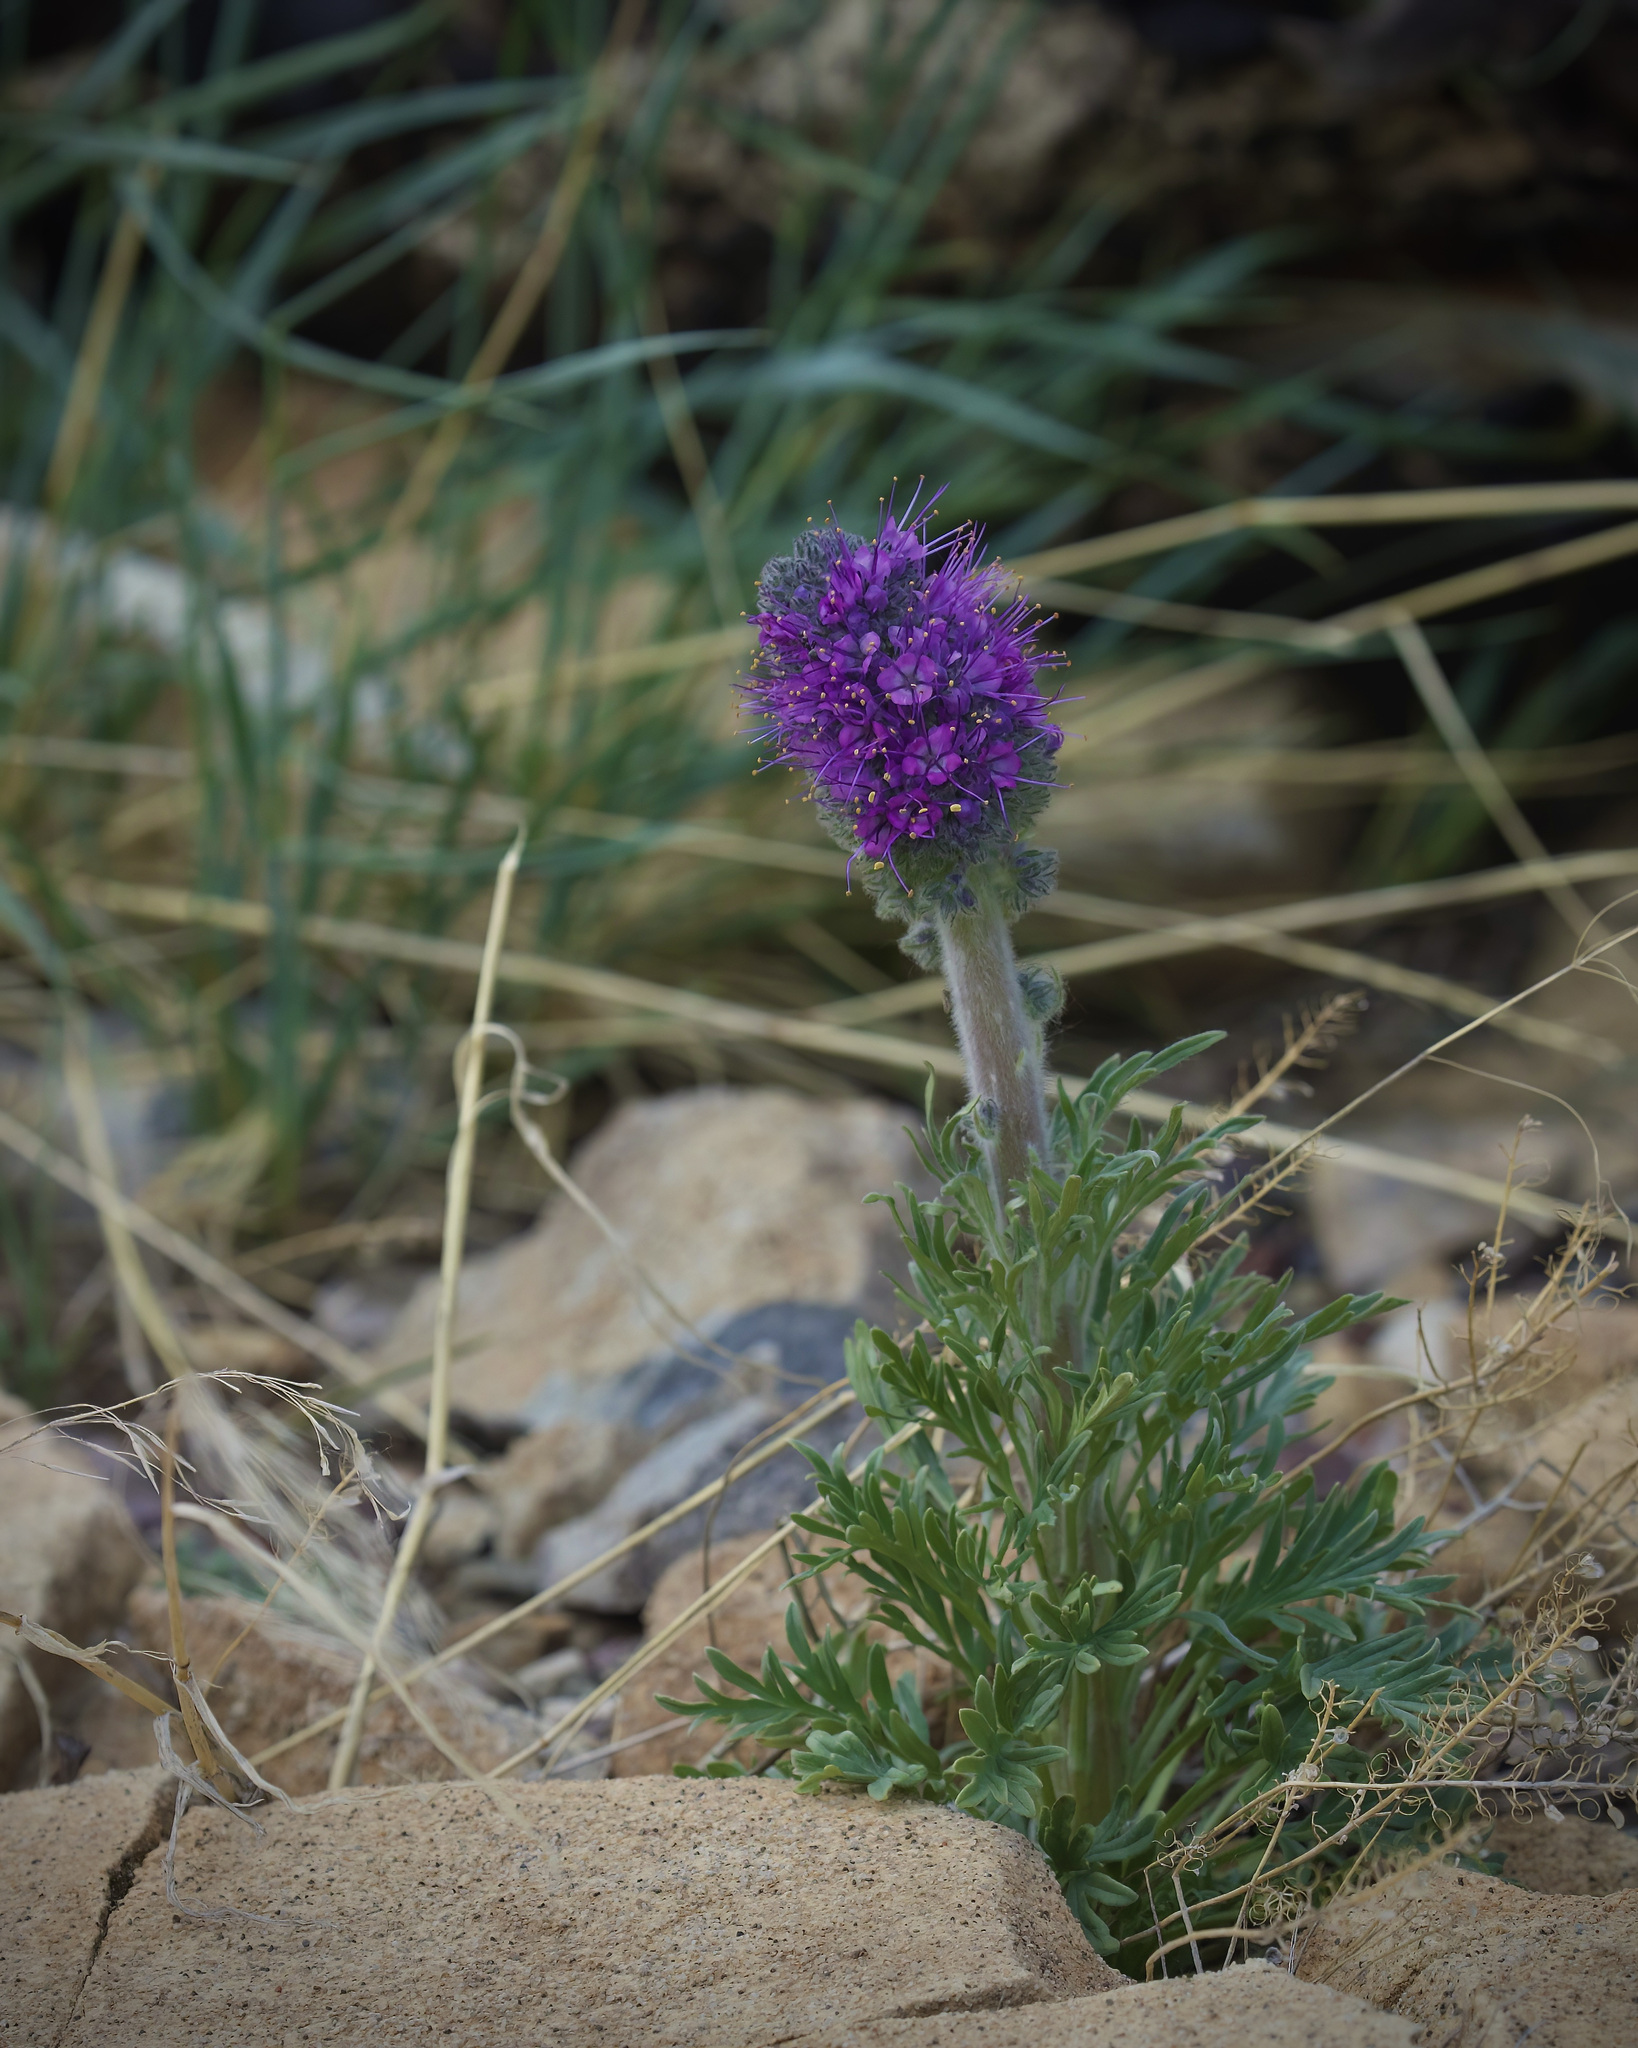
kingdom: Plantae
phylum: Tracheophyta
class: Magnoliopsida
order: Boraginales
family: Hydrophyllaceae
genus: Phacelia
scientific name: Phacelia sericea
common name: Silky phacelia
